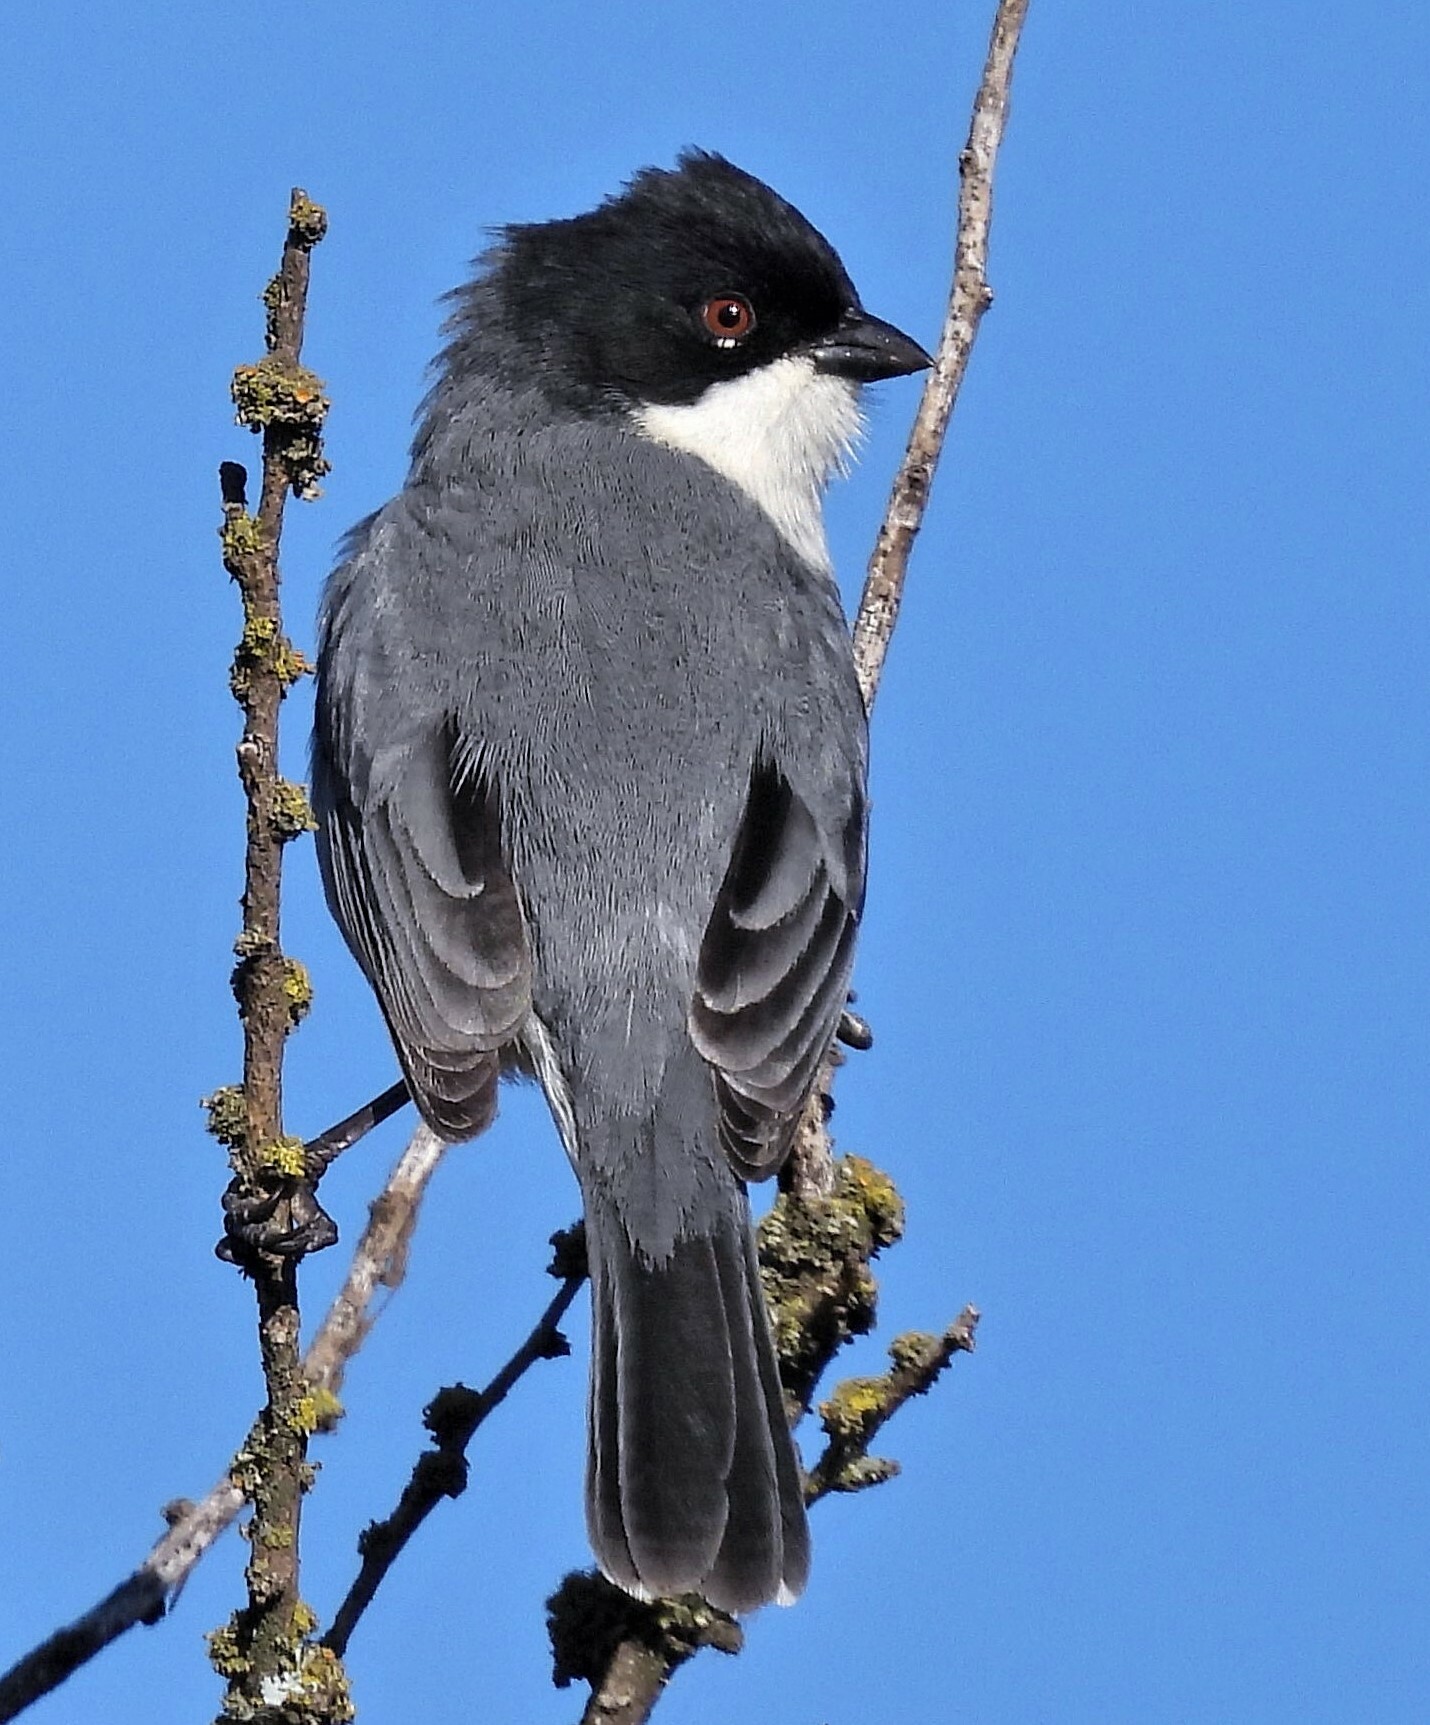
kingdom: Animalia
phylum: Chordata
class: Aves
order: Passeriformes
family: Thraupidae
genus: Microspingus
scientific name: Microspingus melanoleucus
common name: Black-capped warbling-finch
